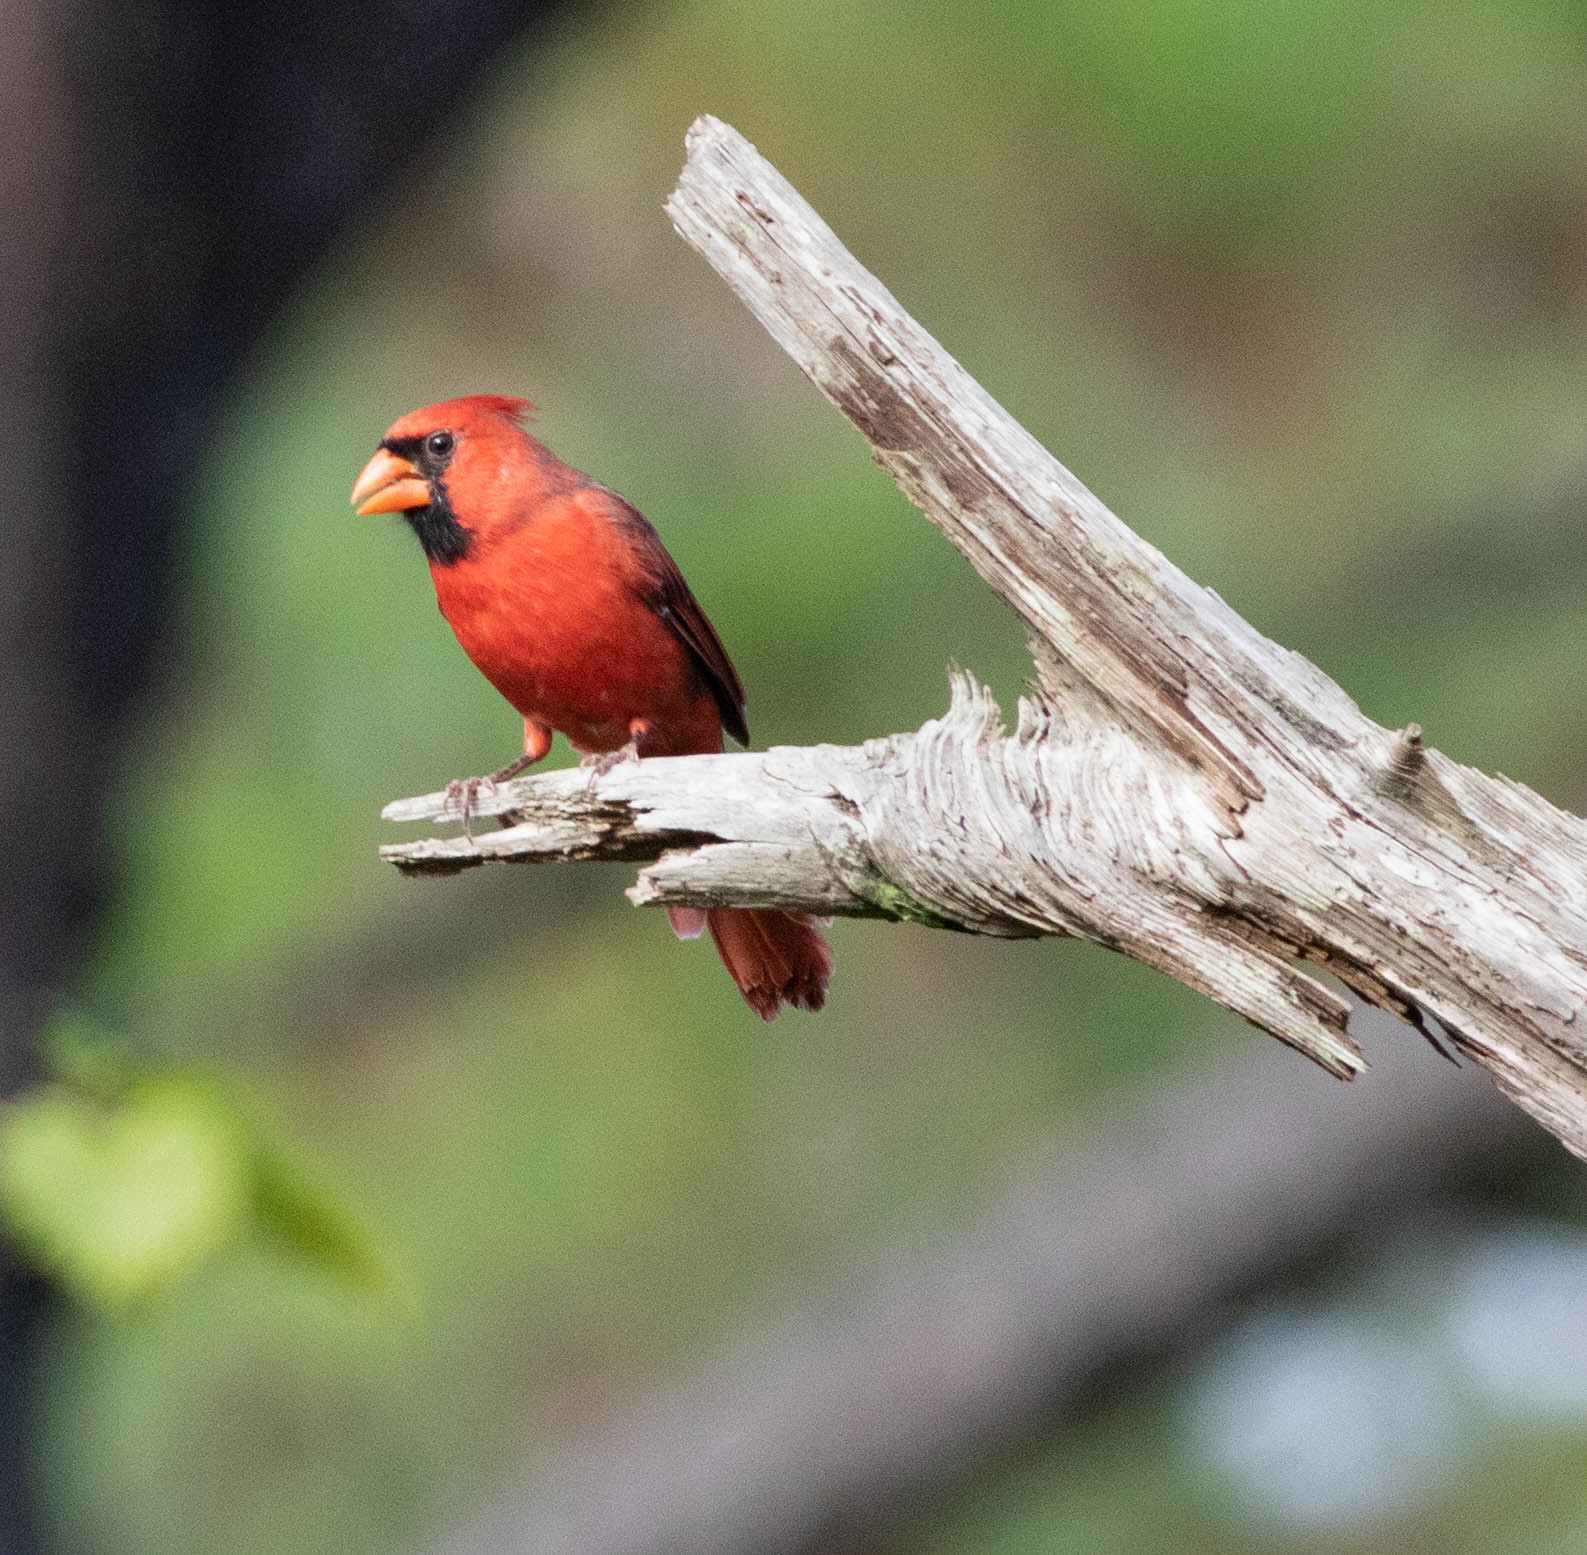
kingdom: Animalia
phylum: Chordata
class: Aves
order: Passeriformes
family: Cardinalidae
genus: Cardinalis
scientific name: Cardinalis cardinalis
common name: Northern cardinal
